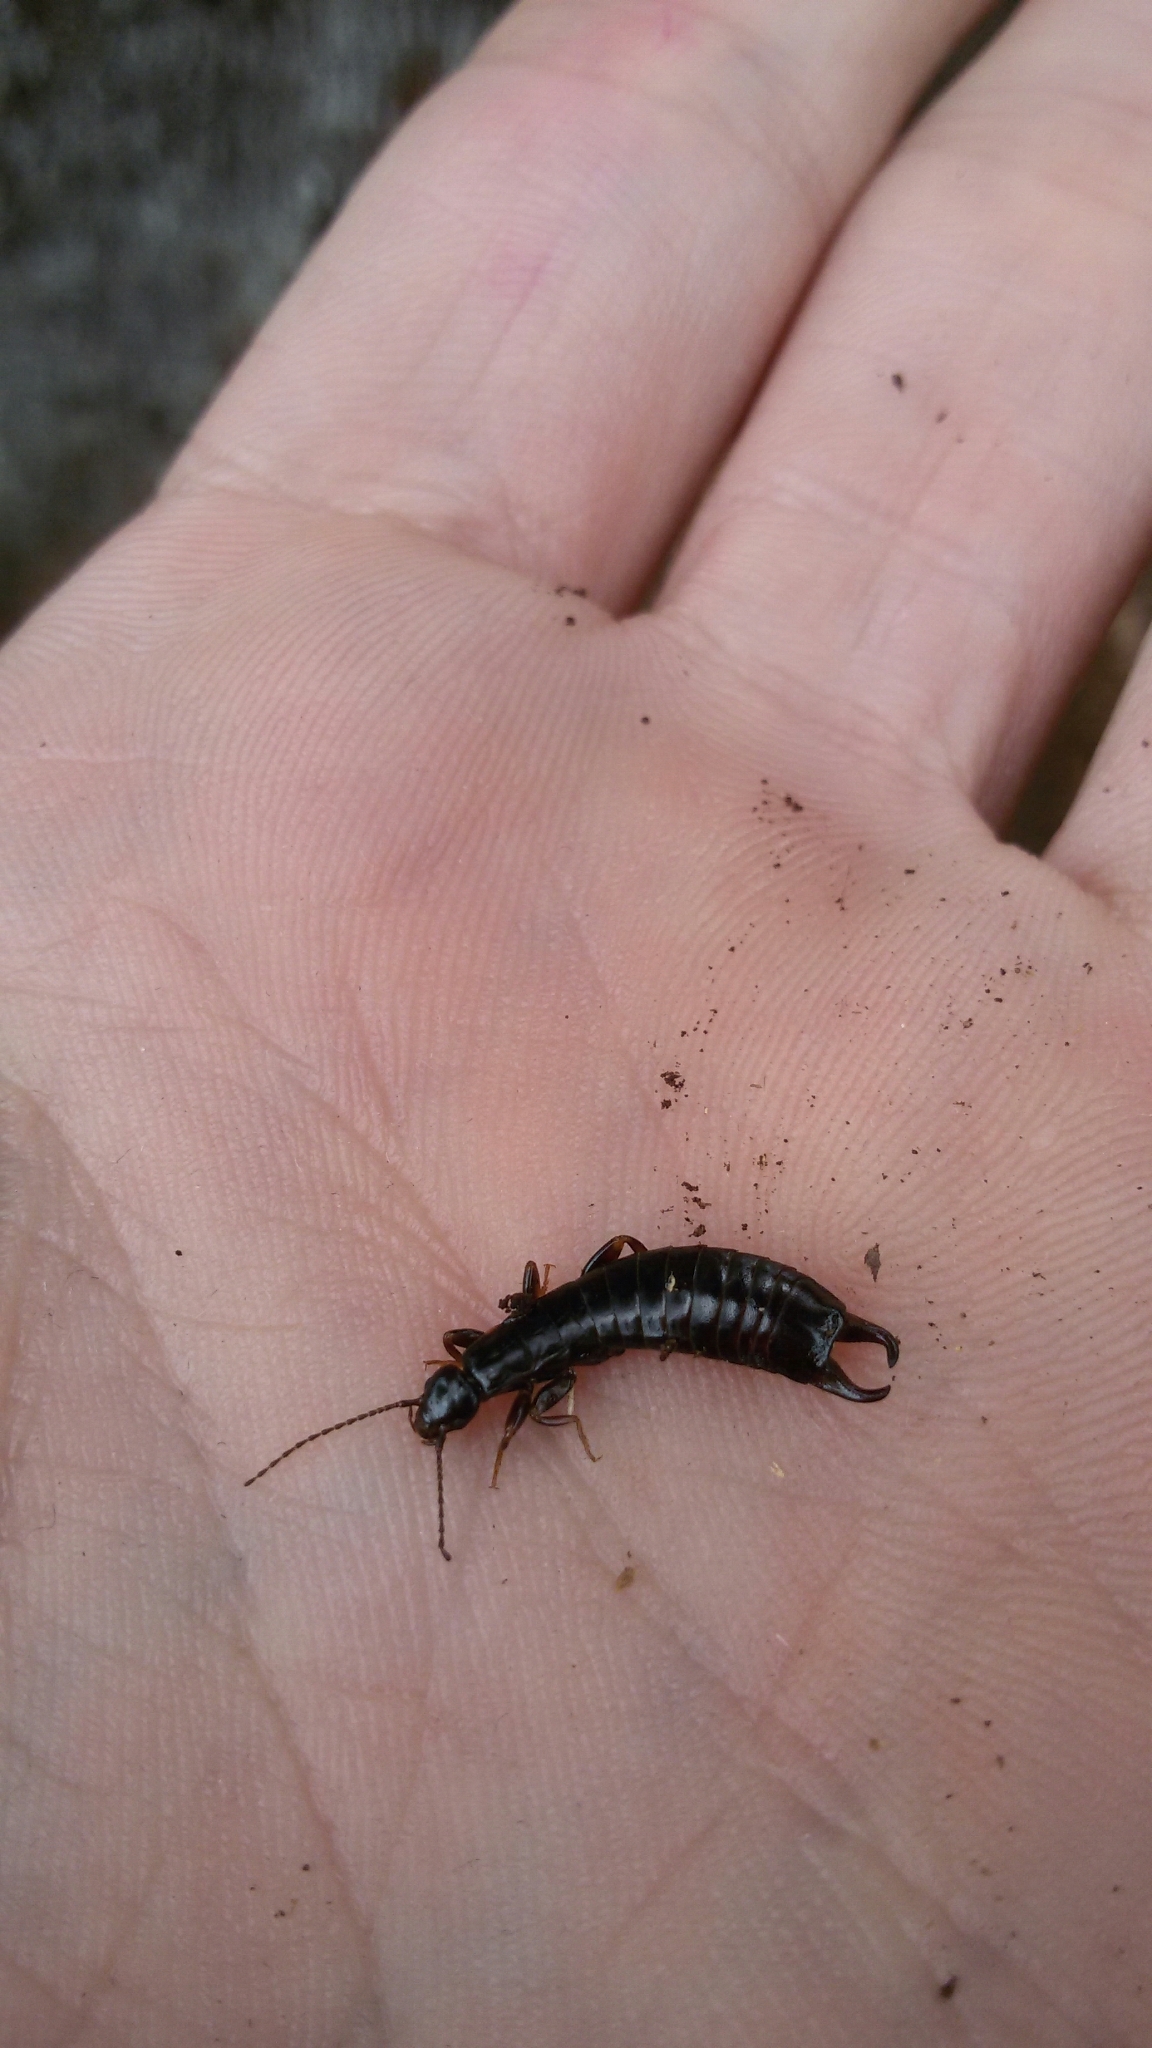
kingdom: Animalia
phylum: Arthropoda
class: Insecta
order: Dermaptera
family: Anisolabididae
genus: Euborellia
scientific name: Euborellia moesta
